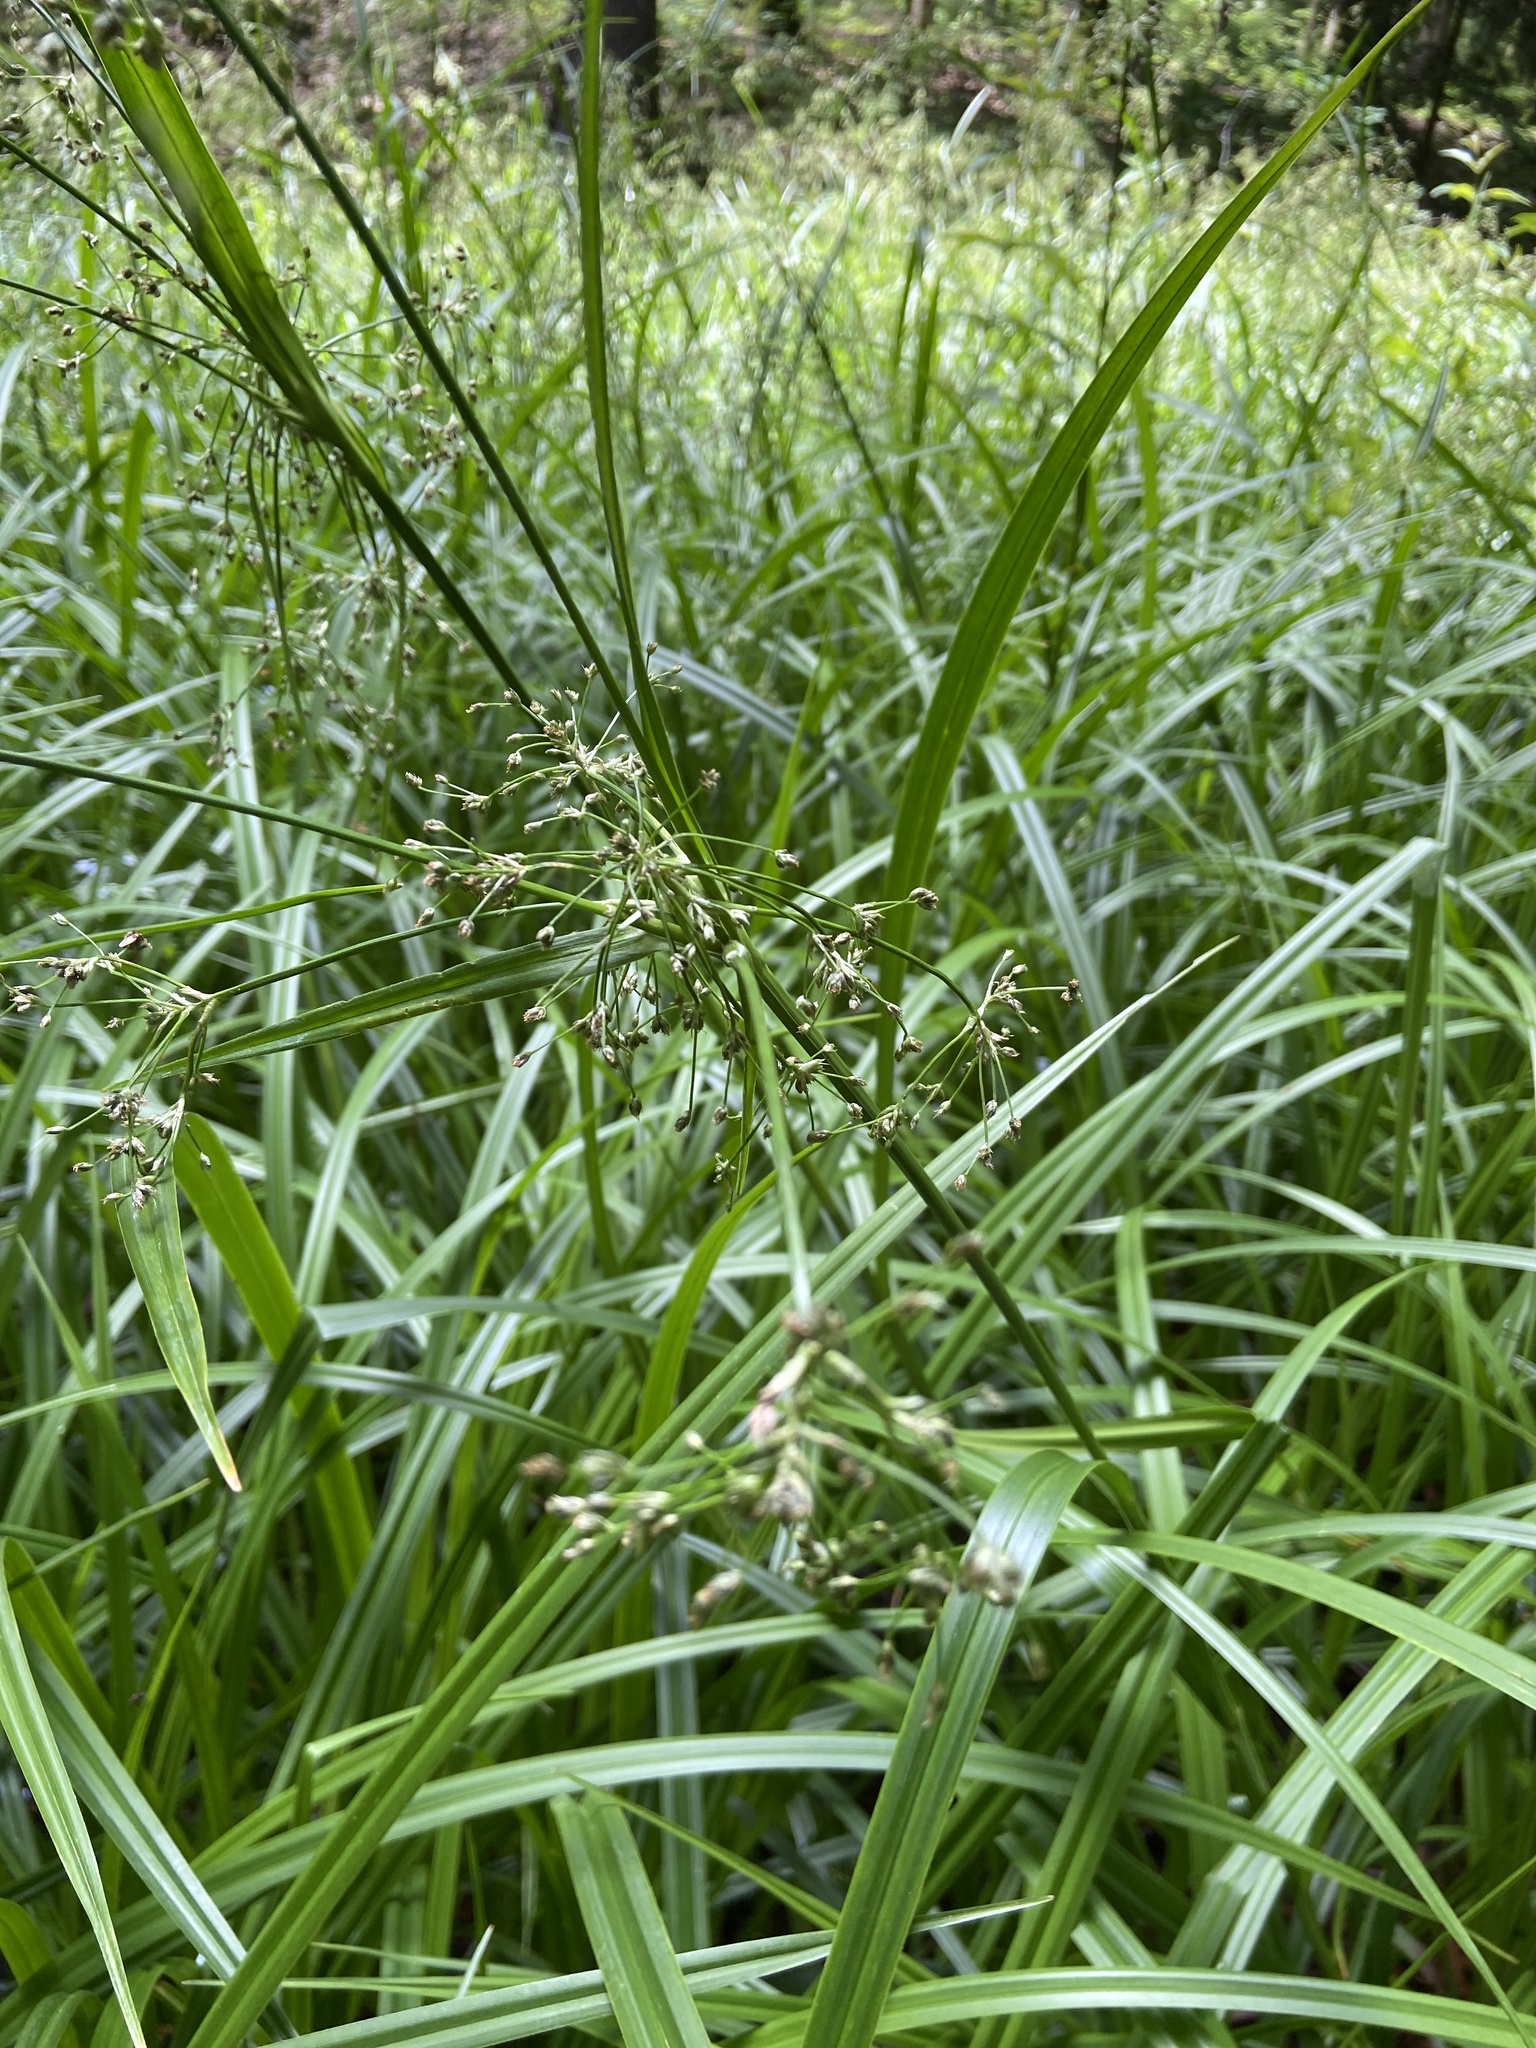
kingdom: Plantae
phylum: Tracheophyta
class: Liliopsida
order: Poales
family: Cyperaceae
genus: Scirpus
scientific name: Scirpus sylvaticus
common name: Wood club-rush
